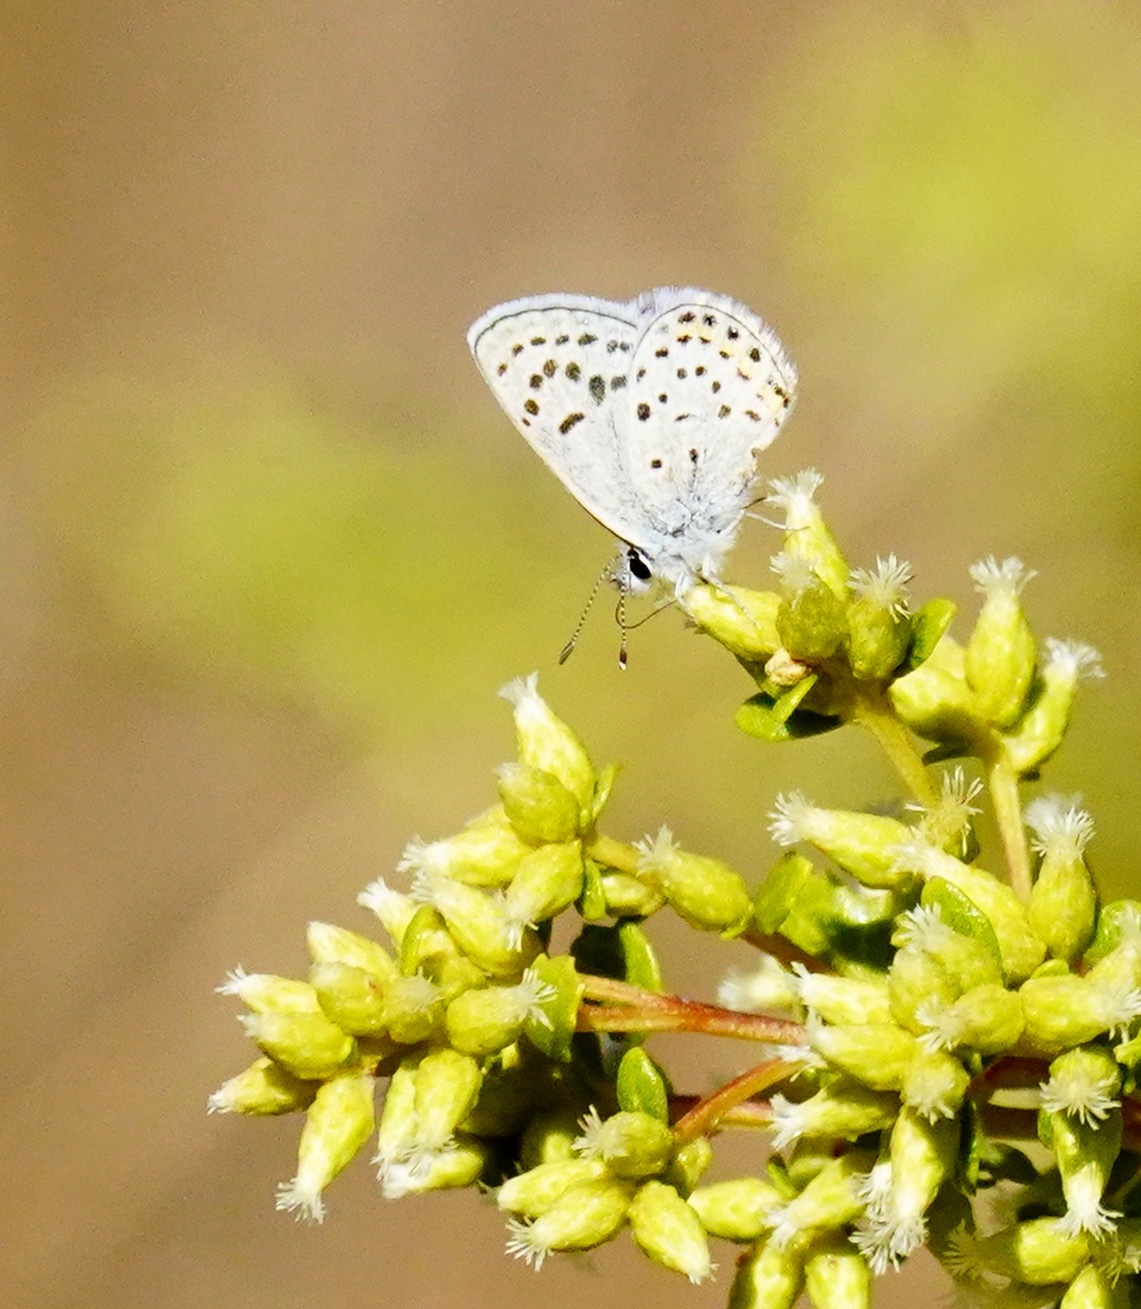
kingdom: Animalia
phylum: Arthropoda
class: Insecta
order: Lepidoptera
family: Lycaenidae
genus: Icaricia
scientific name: Icaricia acmon
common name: Acmon blue
